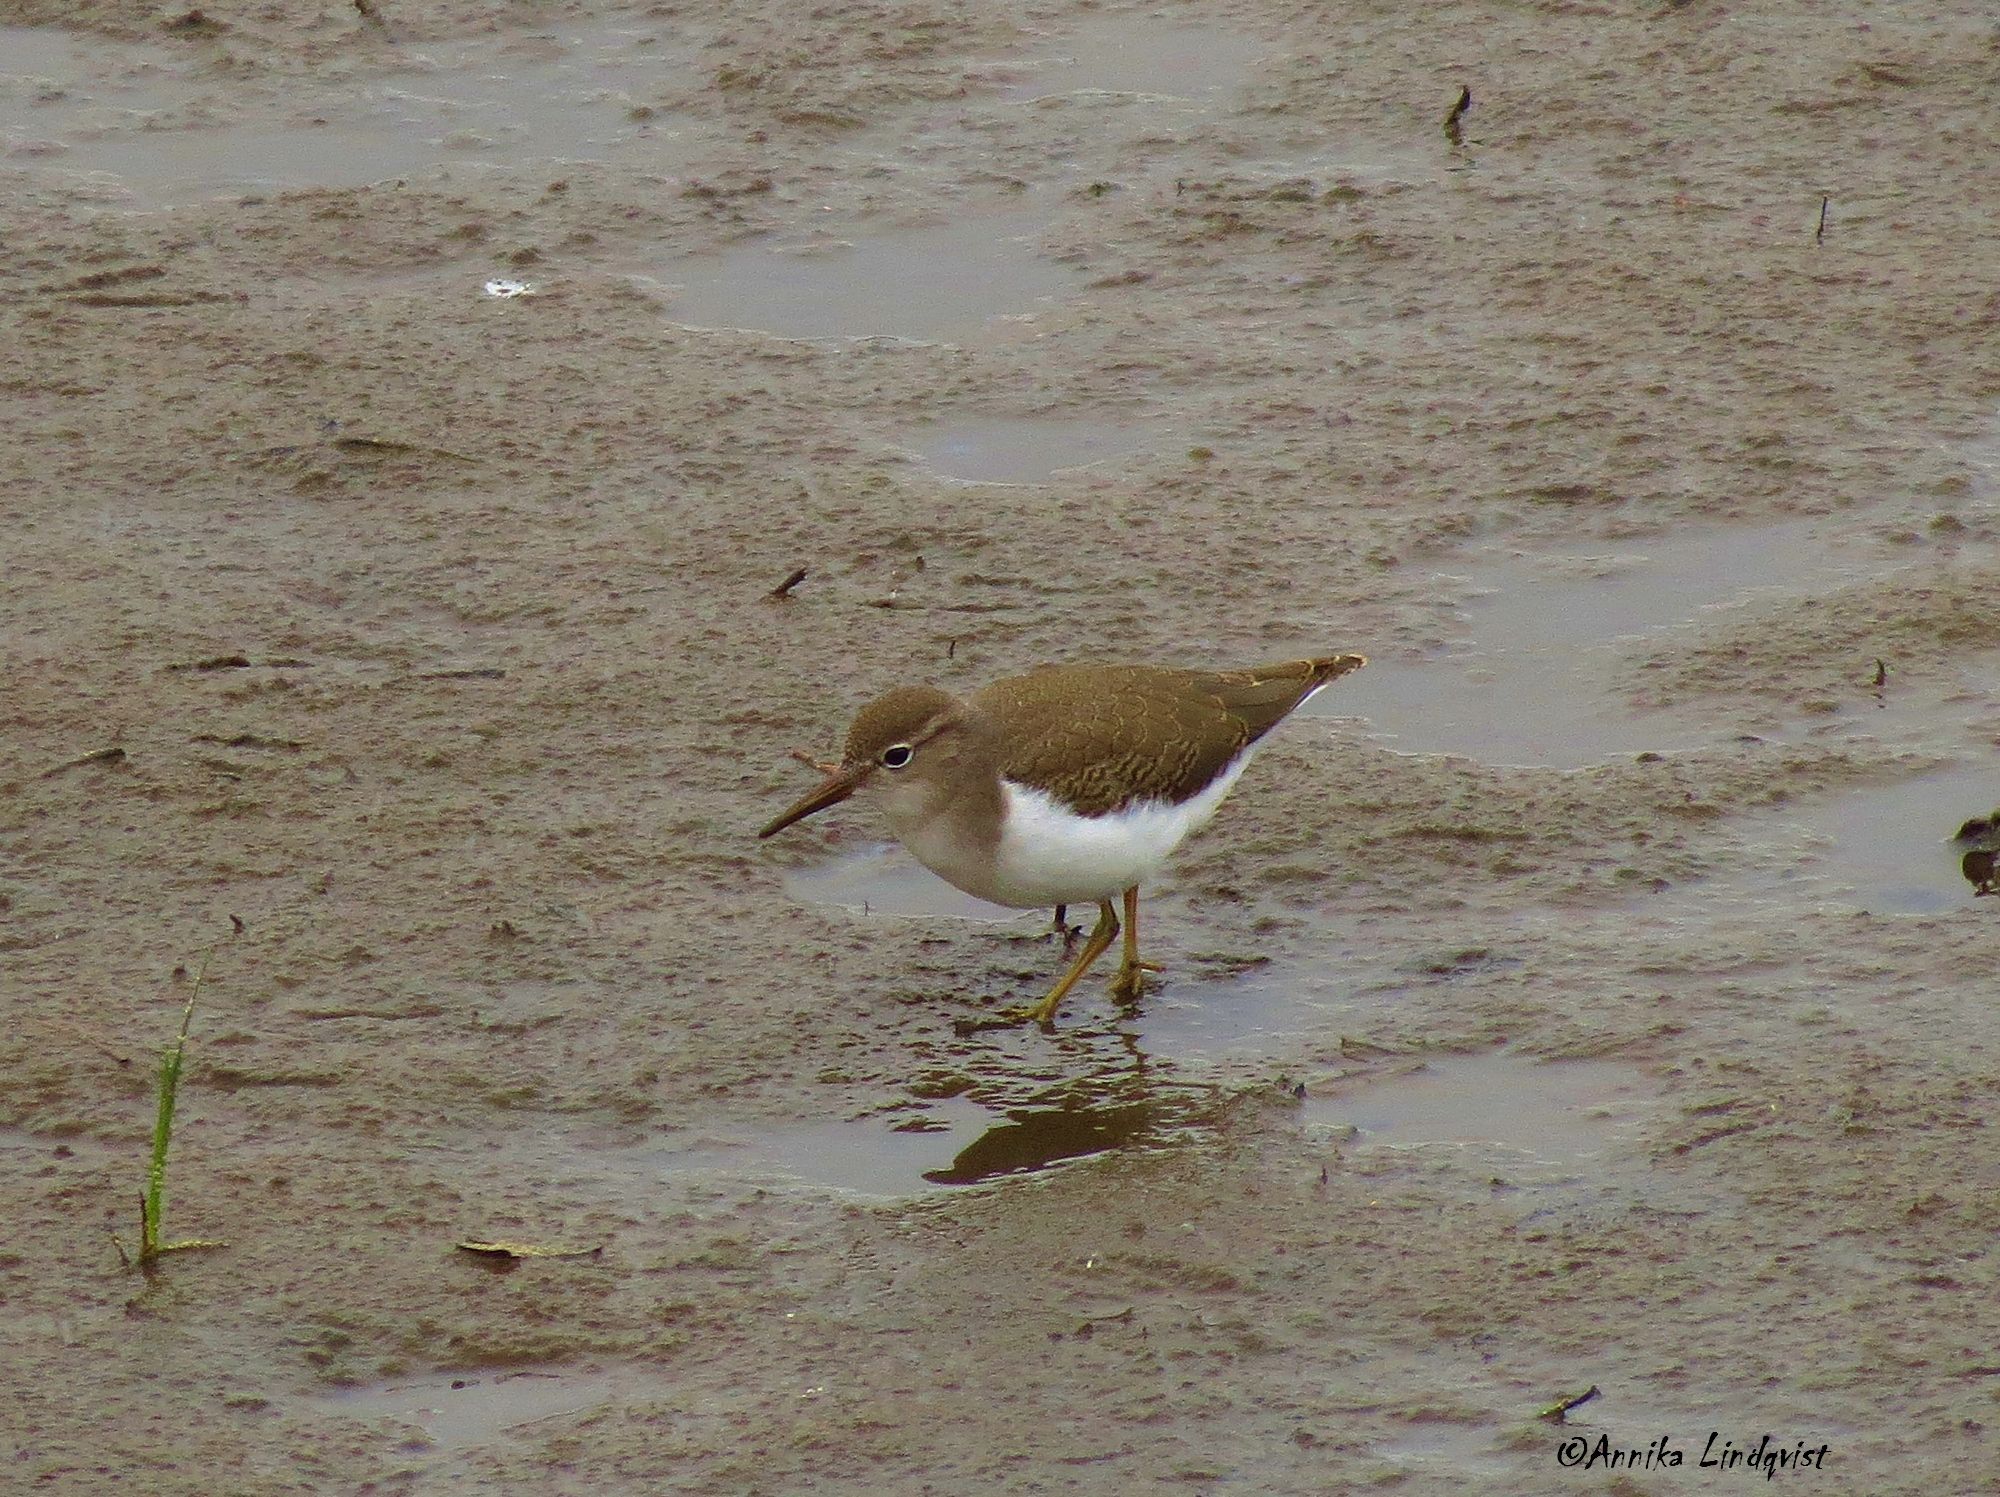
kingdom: Animalia
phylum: Chordata
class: Aves
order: Charadriiformes
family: Scolopacidae
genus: Actitis
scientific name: Actitis macularius
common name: Spotted sandpiper
